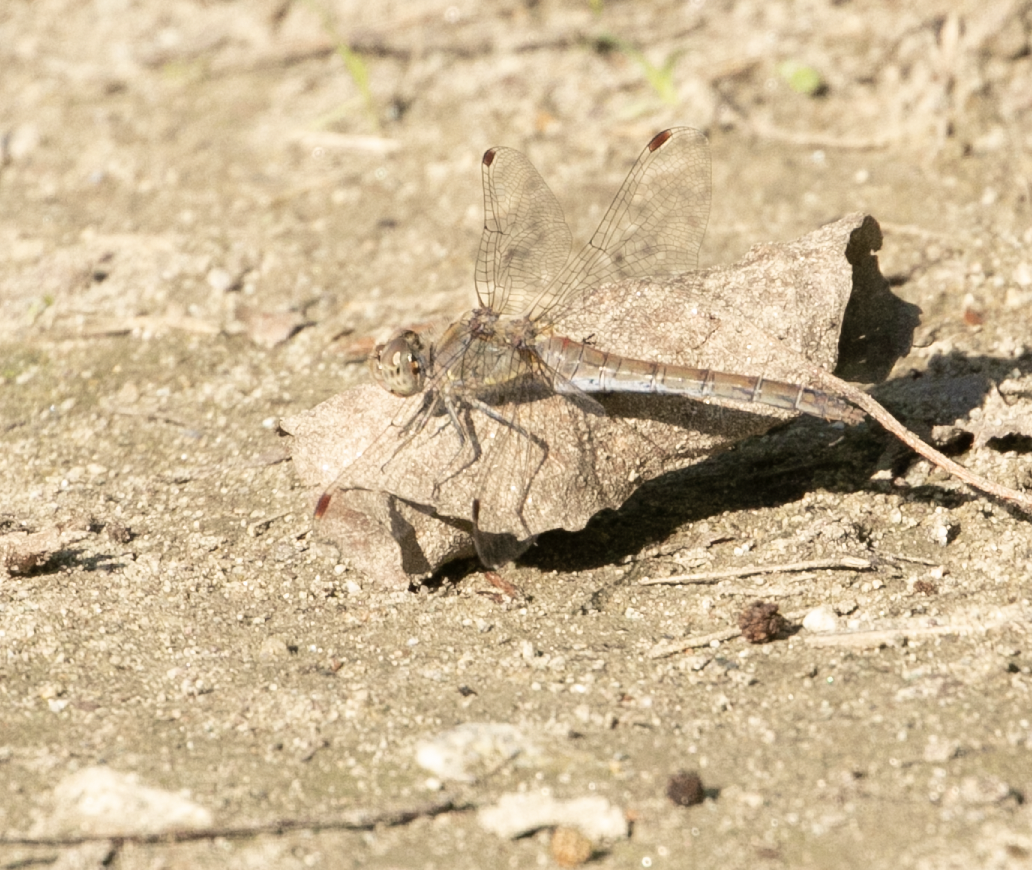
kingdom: Animalia
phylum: Arthropoda
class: Insecta
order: Odonata
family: Libellulidae
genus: Sympetrum
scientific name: Sympetrum striolatum
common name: Common darter
